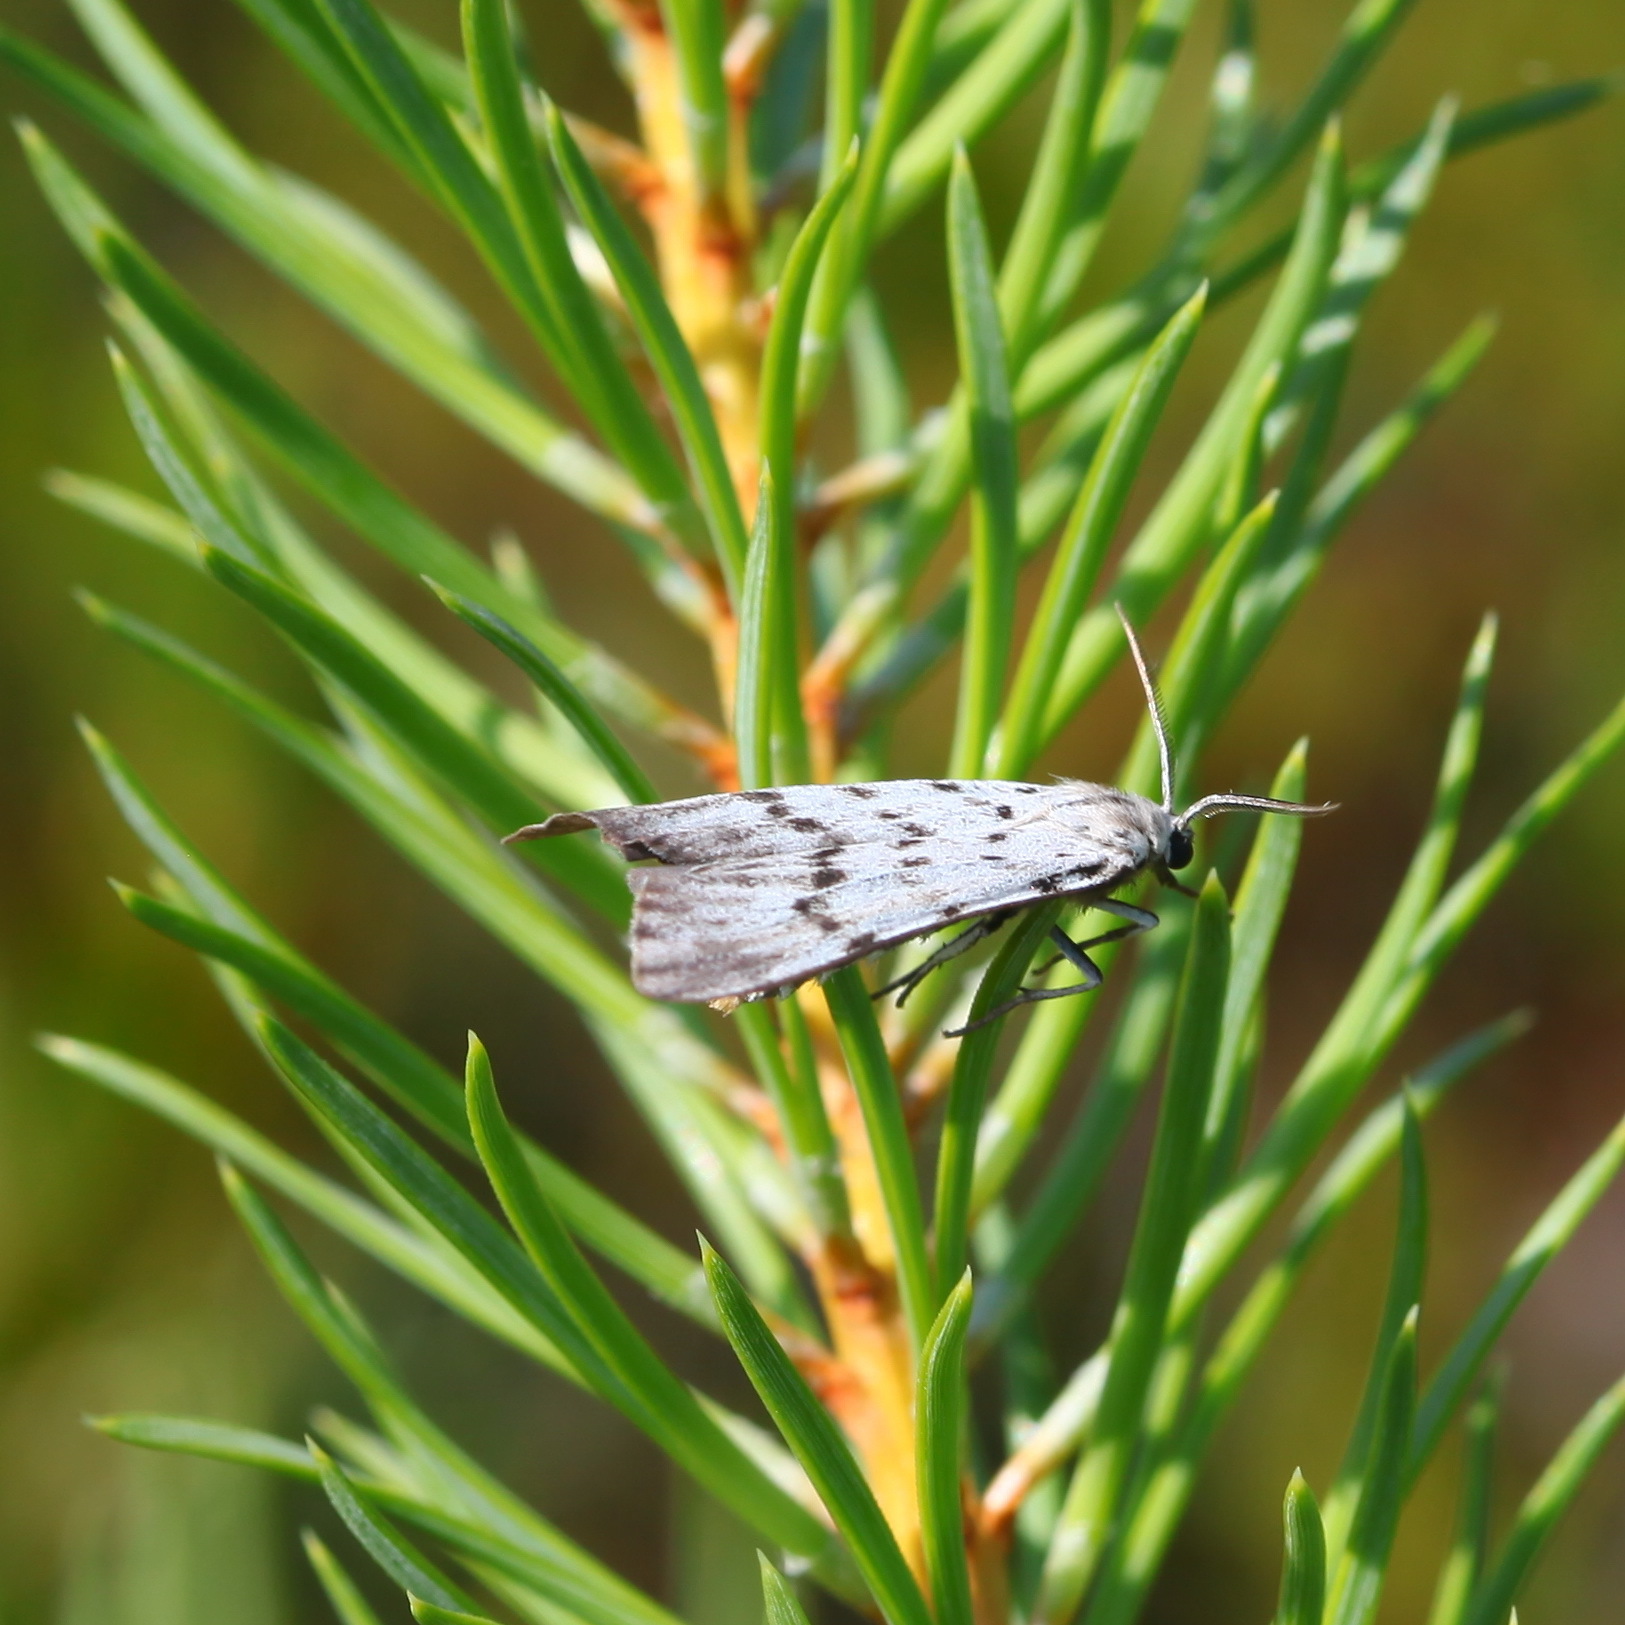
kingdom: Animalia
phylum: Arthropoda
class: Insecta
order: Lepidoptera
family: Erebidae
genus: Coscinia
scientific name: Coscinia cribraria
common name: Speckled footman
